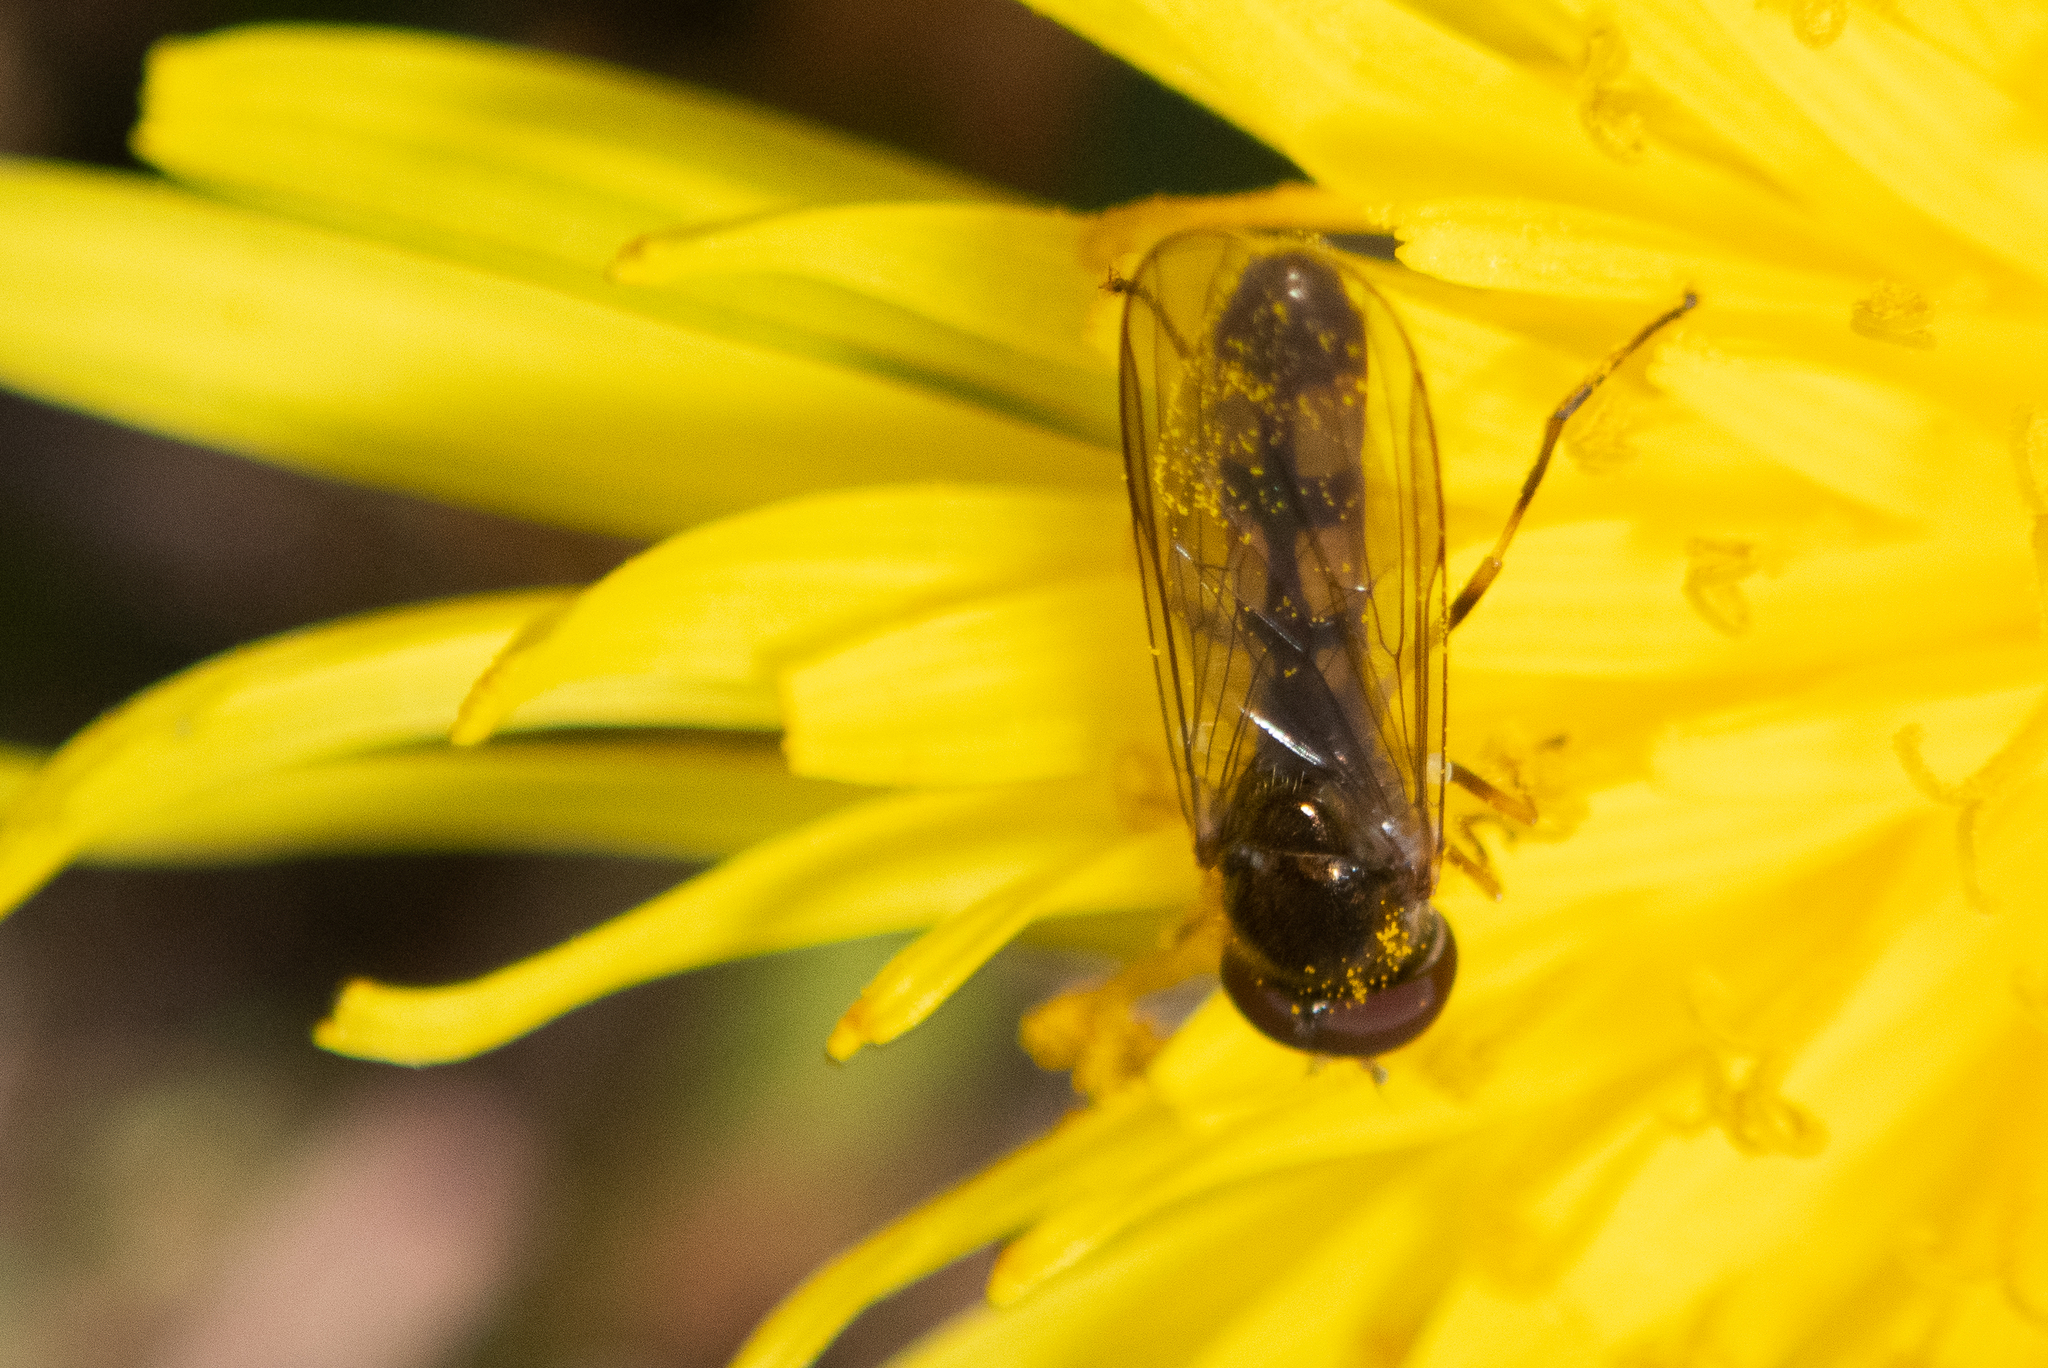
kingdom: Animalia
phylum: Arthropoda
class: Insecta
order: Diptera
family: Syrphidae
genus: Melanostoma
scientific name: Melanostoma scalare
